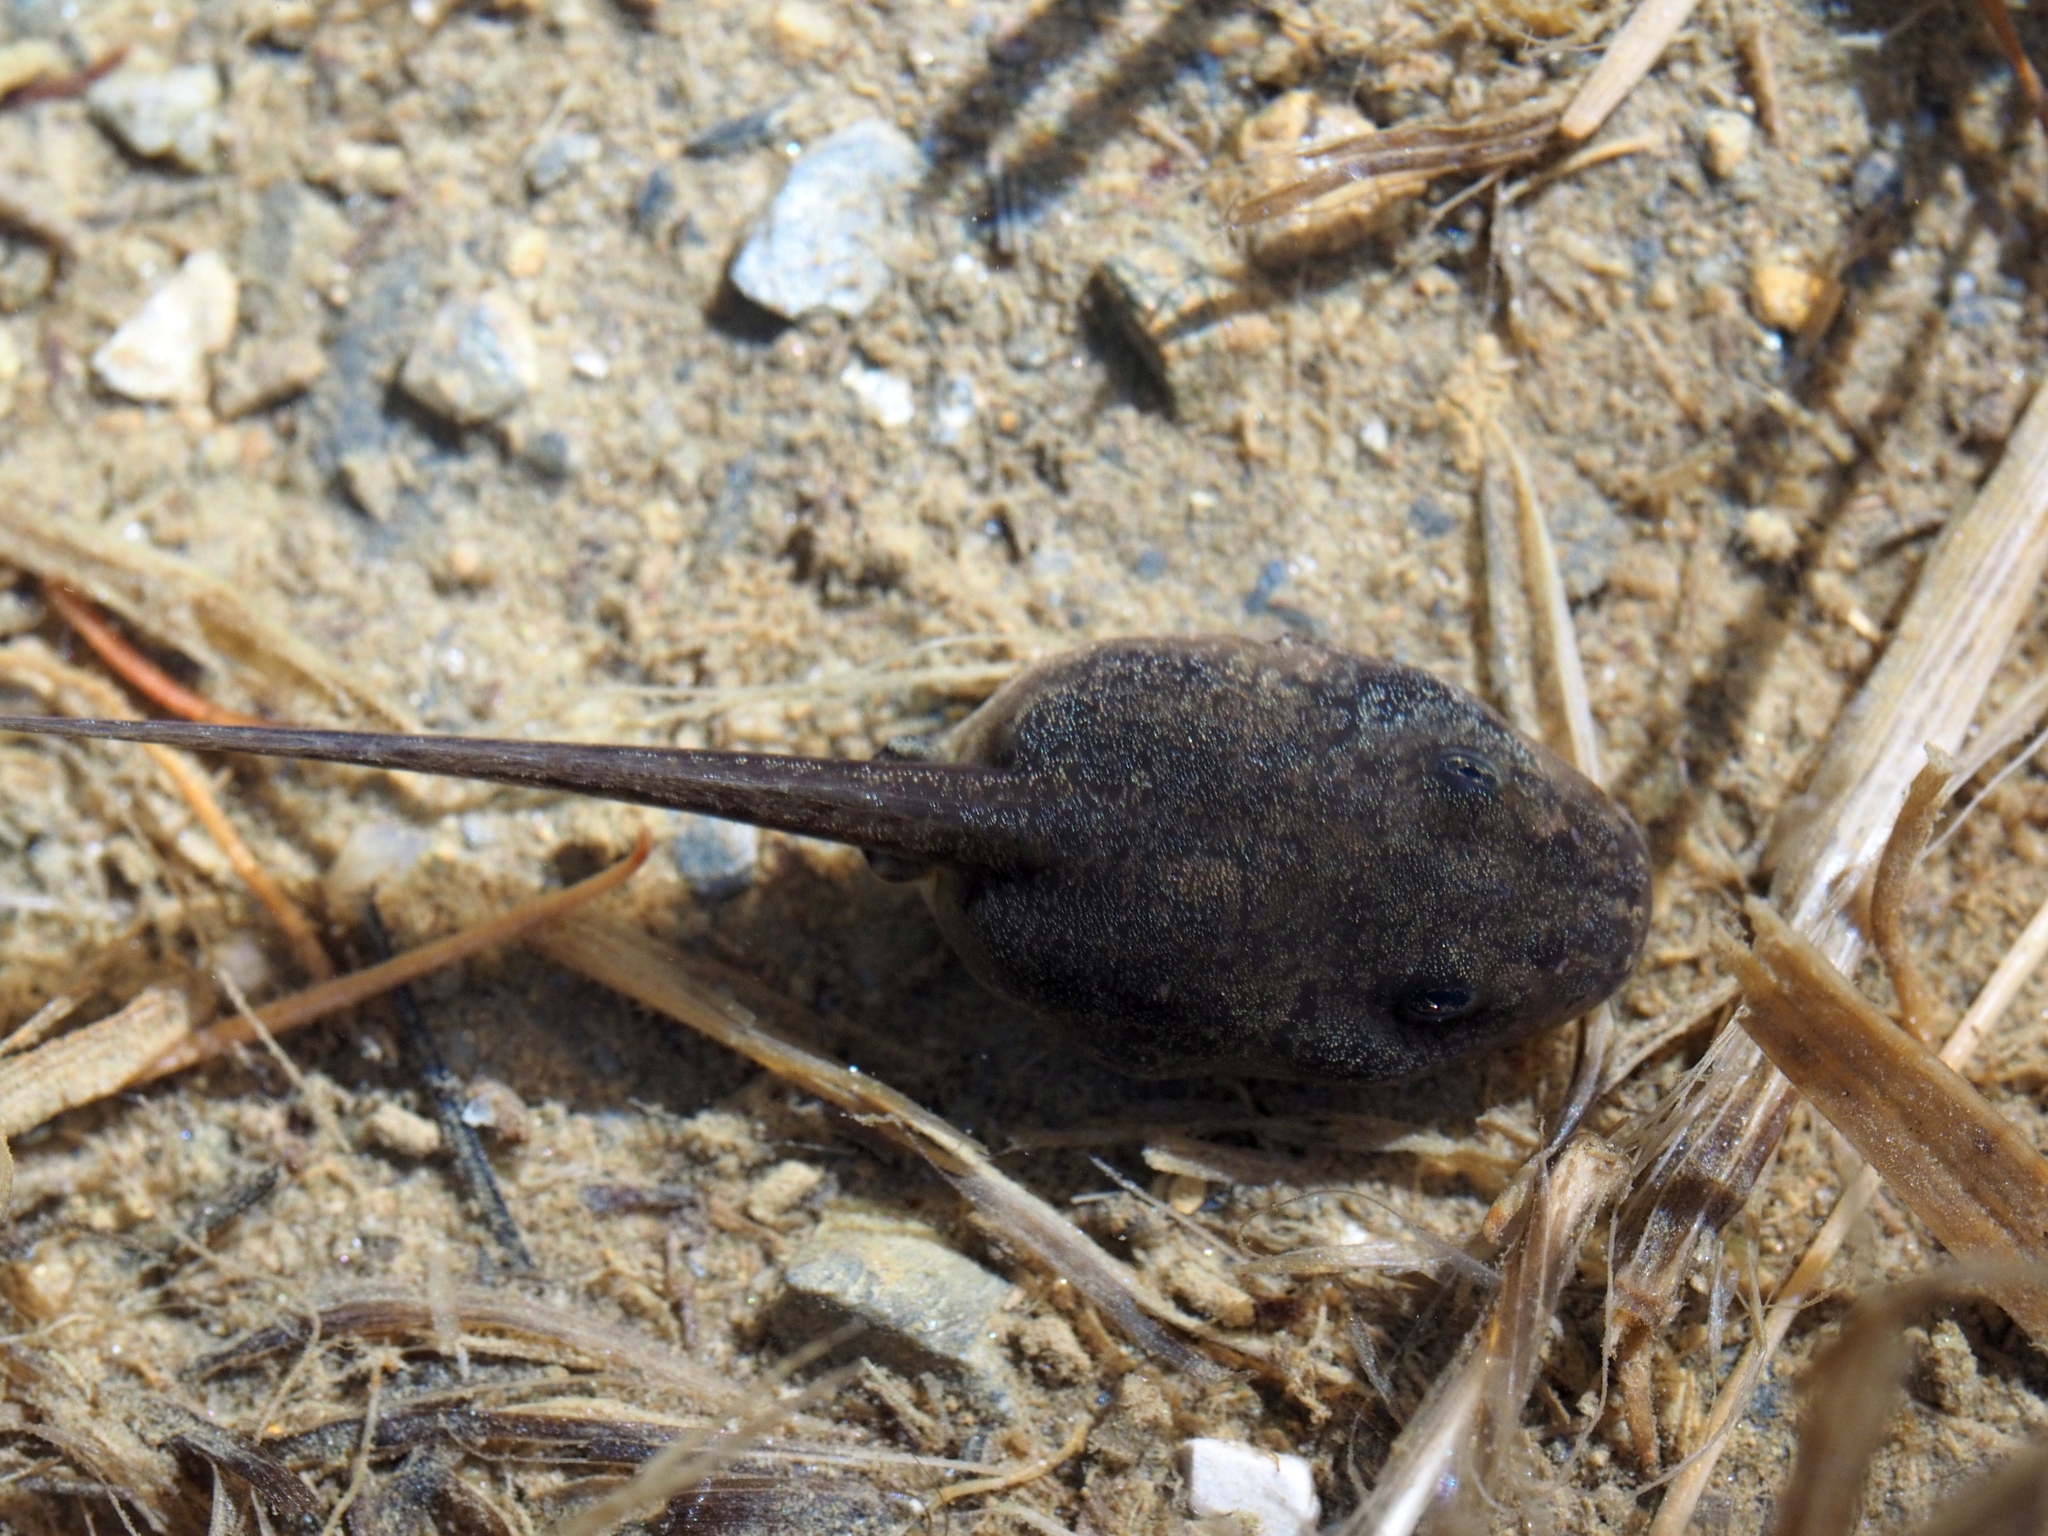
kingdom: Animalia
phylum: Chordata
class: Amphibia
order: Anura
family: Ranidae
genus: Rana
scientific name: Rana temporaria
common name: Common frog
